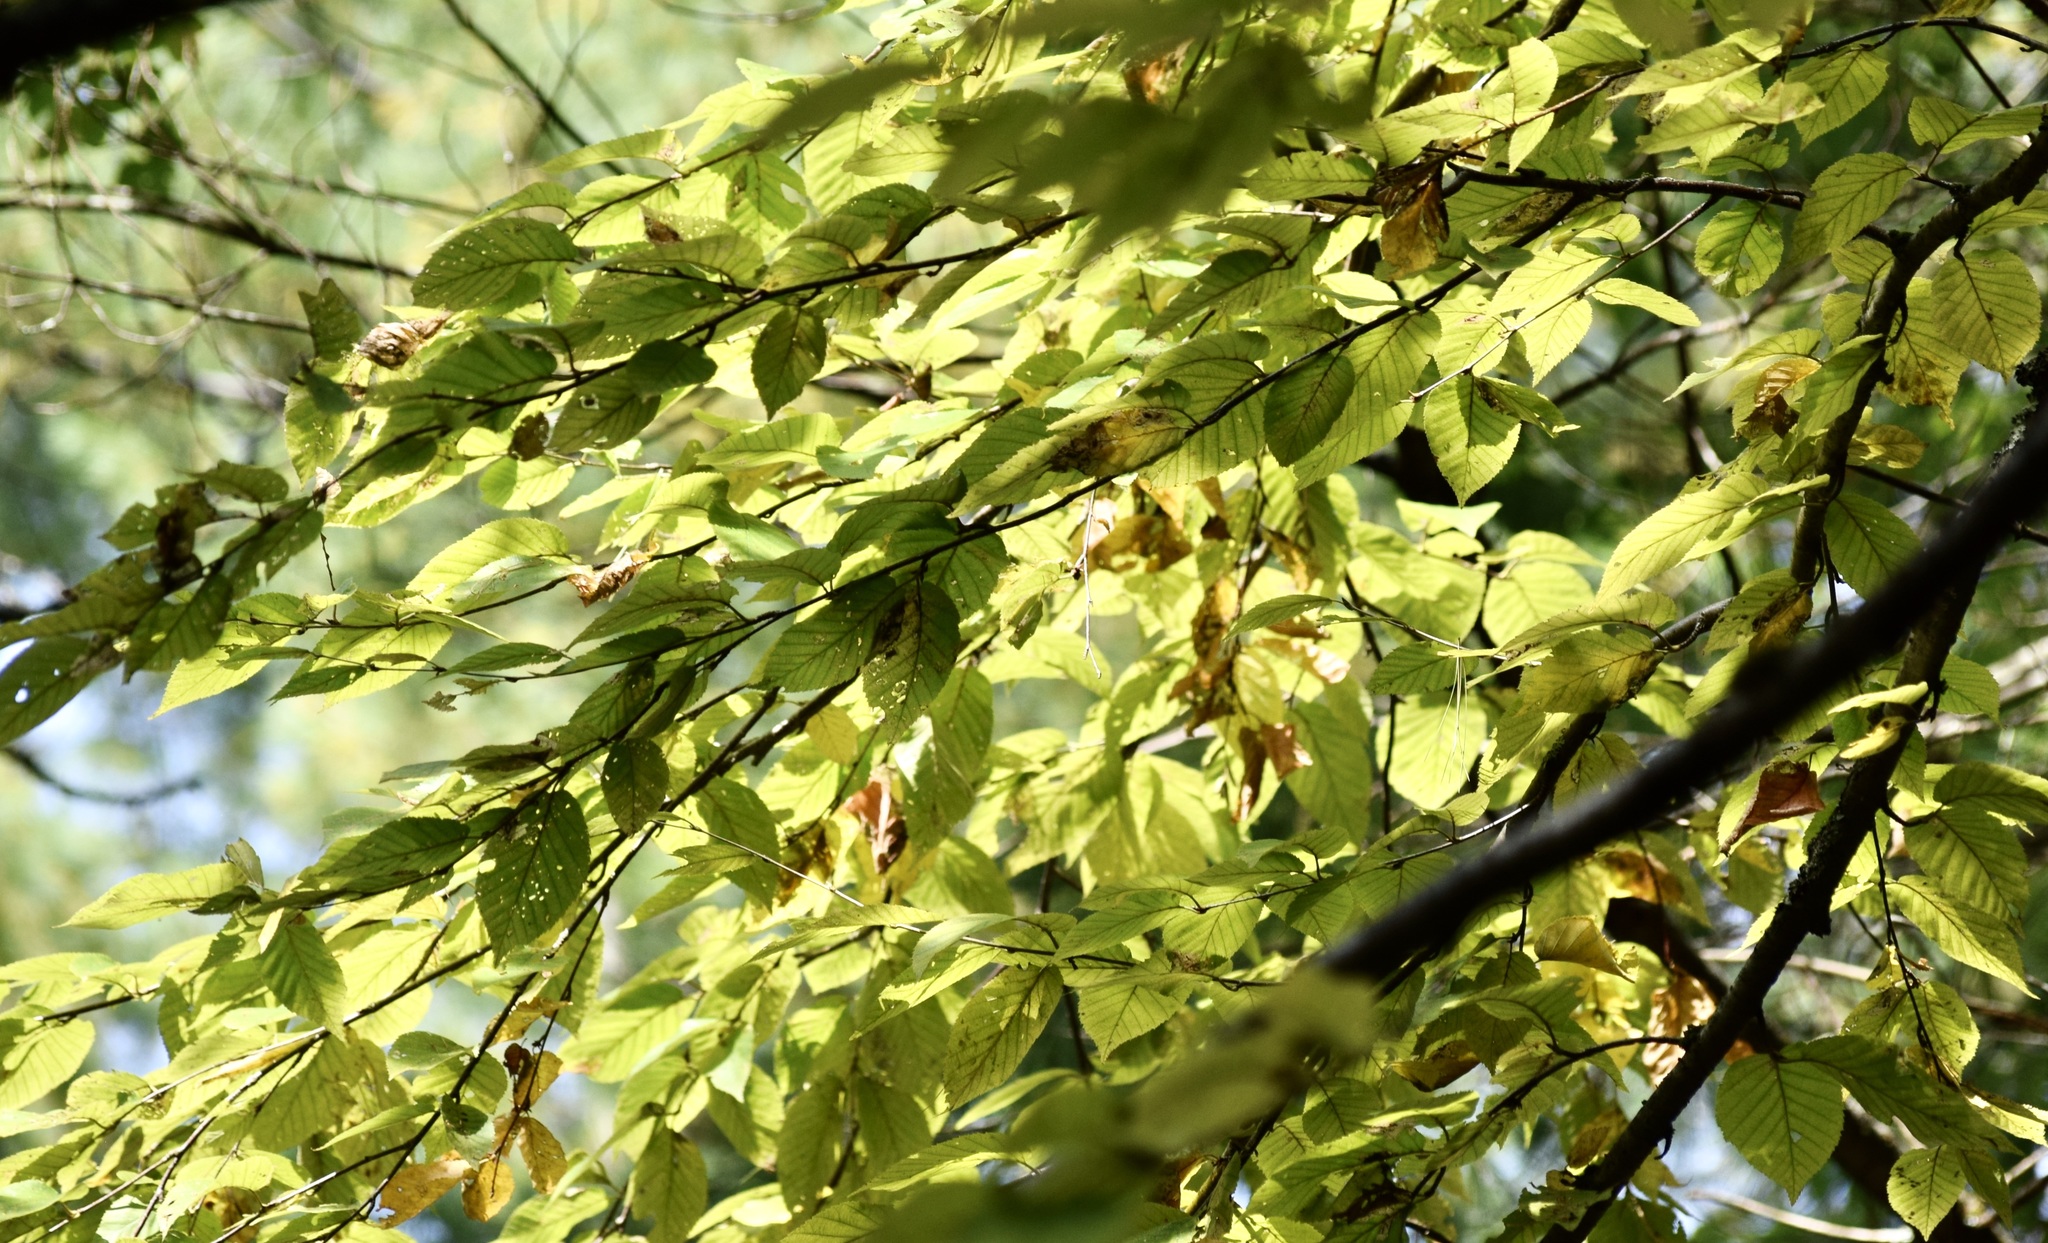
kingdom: Plantae
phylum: Tracheophyta
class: Magnoliopsida
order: Fagales
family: Betulaceae
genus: Betula
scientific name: Betula alleghaniensis
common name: Yellow birch
